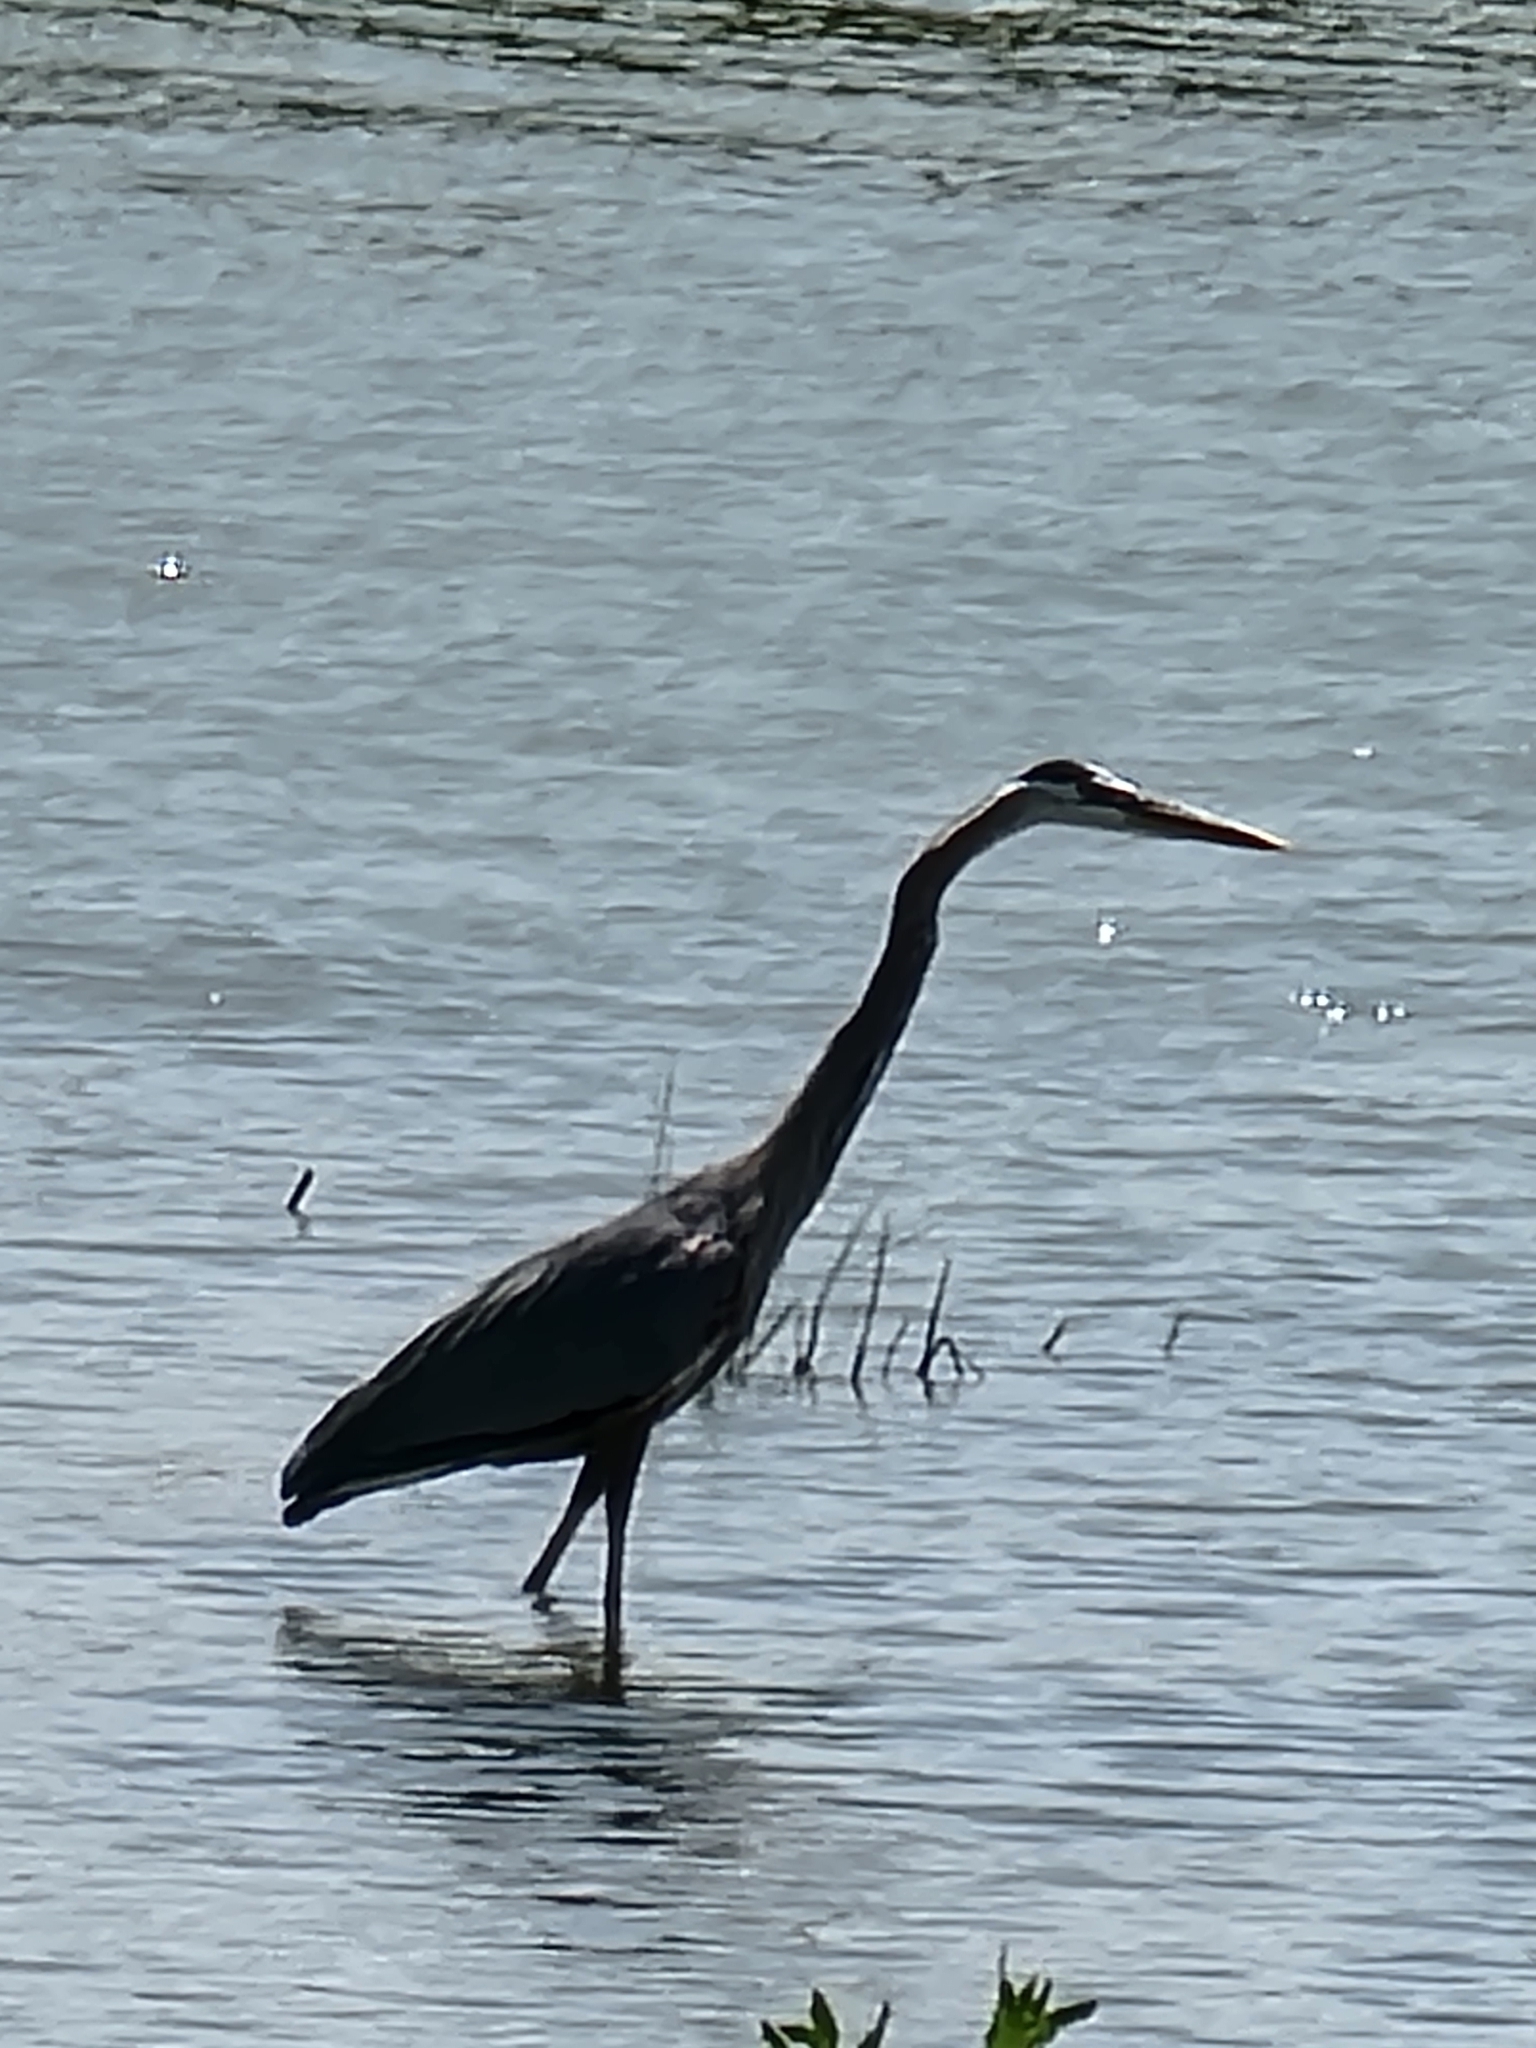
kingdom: Animalia
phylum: Chordata
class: Aves
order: Pelecaniformes
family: Ardeidae
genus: Ardea
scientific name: Ardea herodias
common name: Great blue heron
